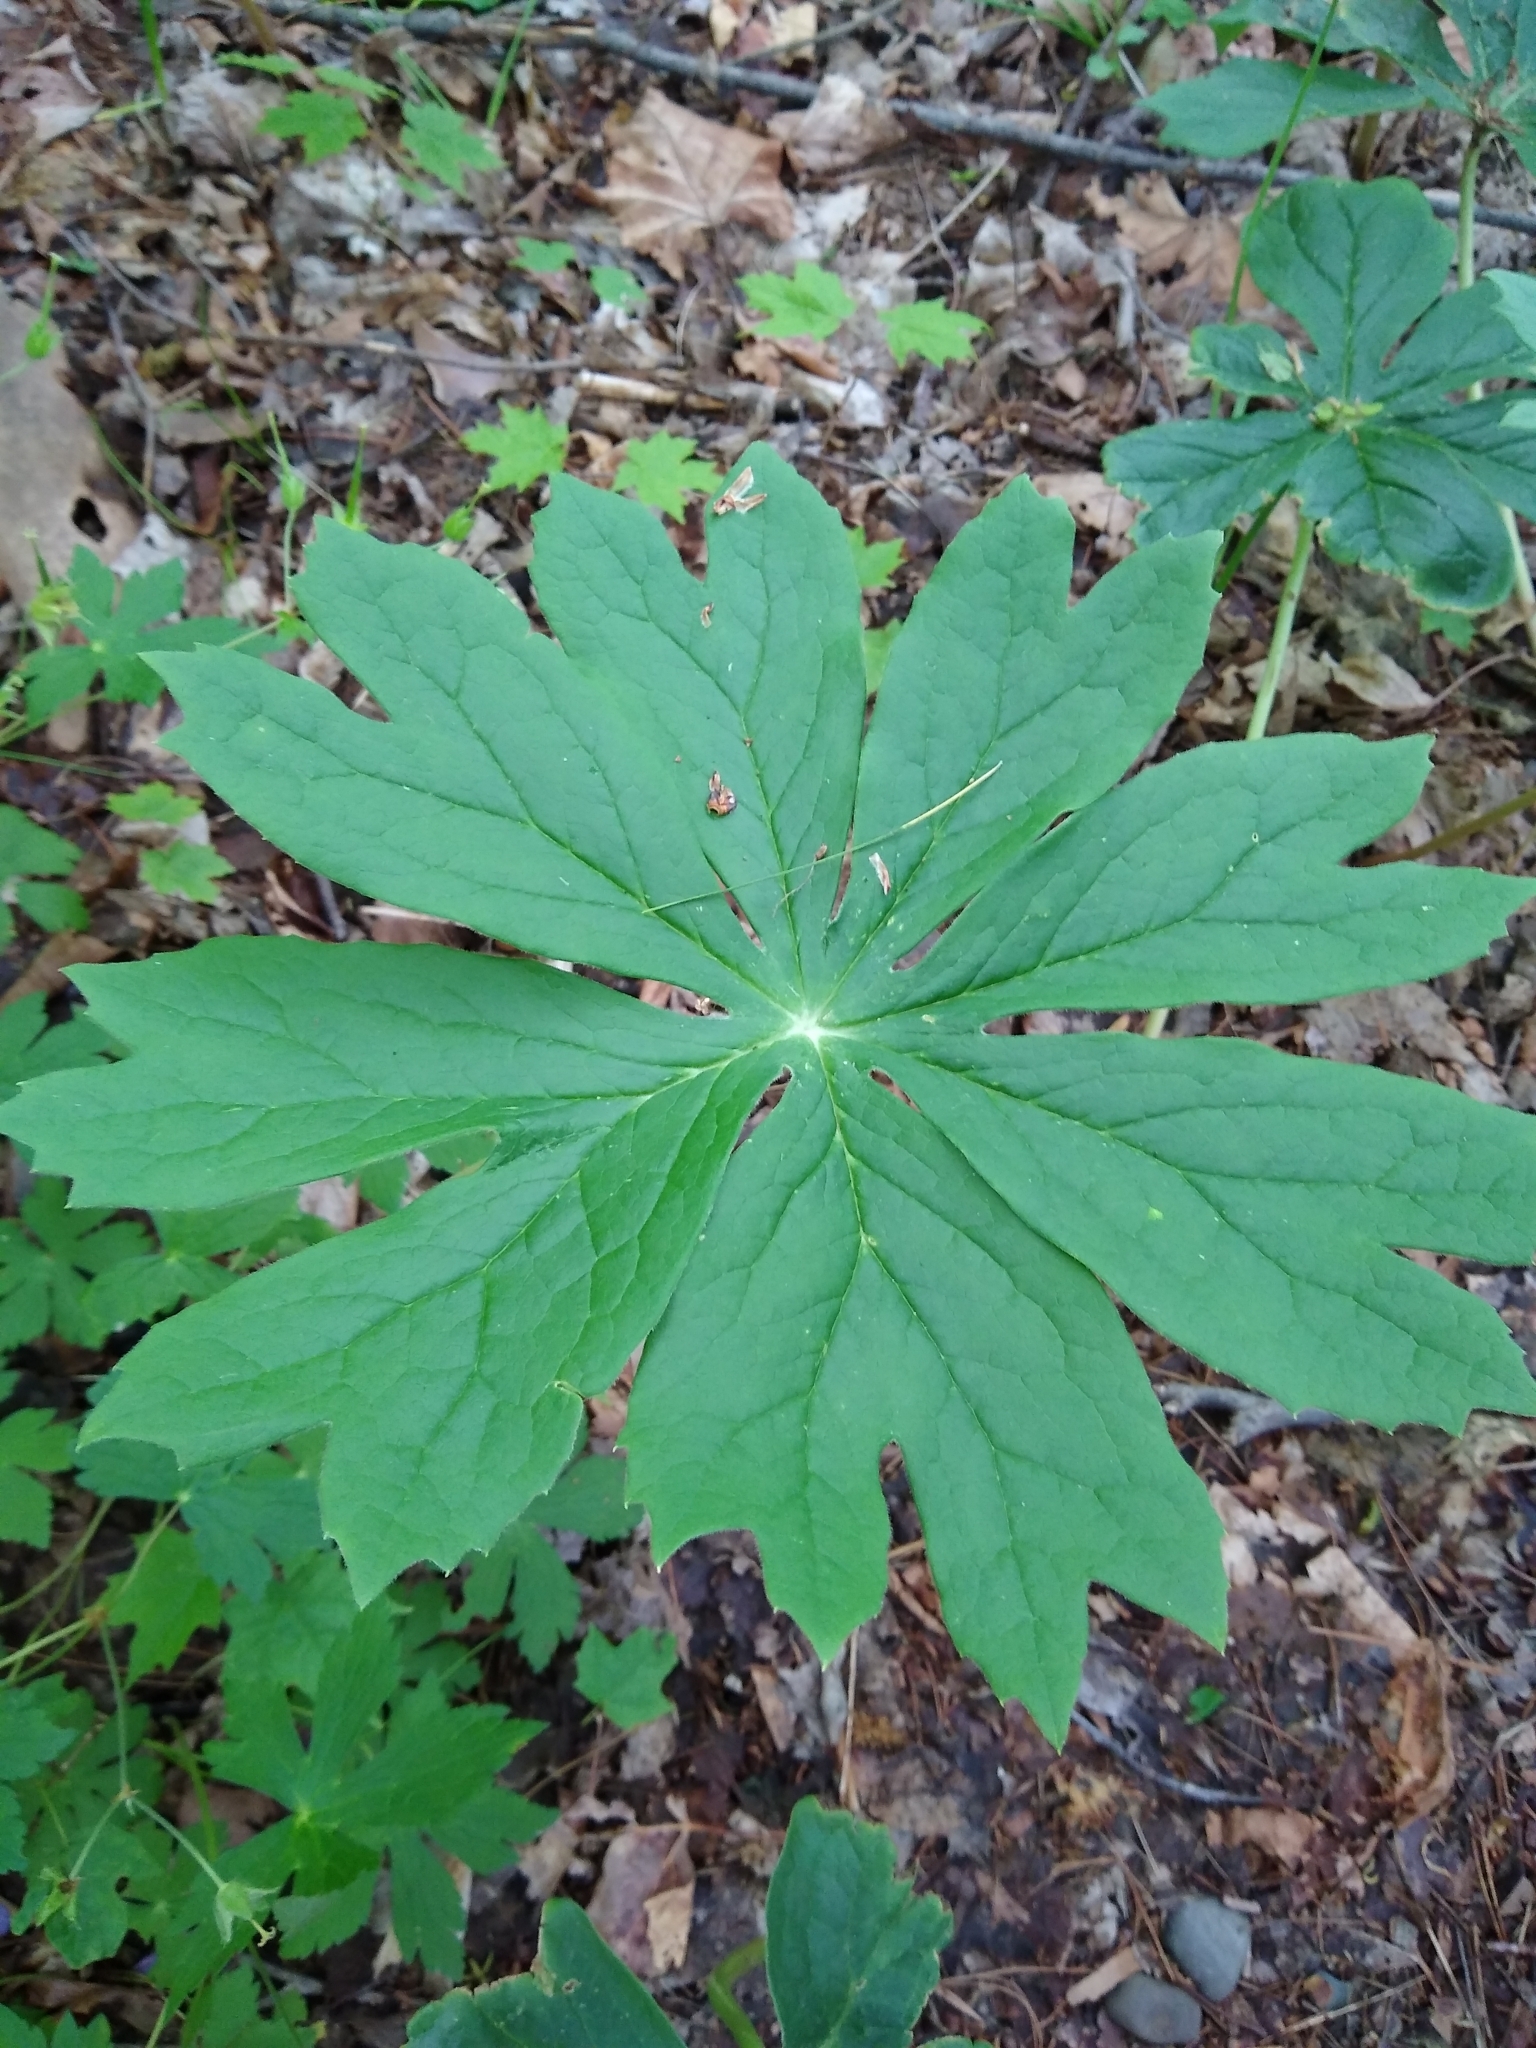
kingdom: Plantae
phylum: Tracheophyta
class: Magnoliopsida
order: Ranunculales
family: Berberidaceae
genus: Podophyllum
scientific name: Podophyllum peltatum
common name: Wild mandrake
